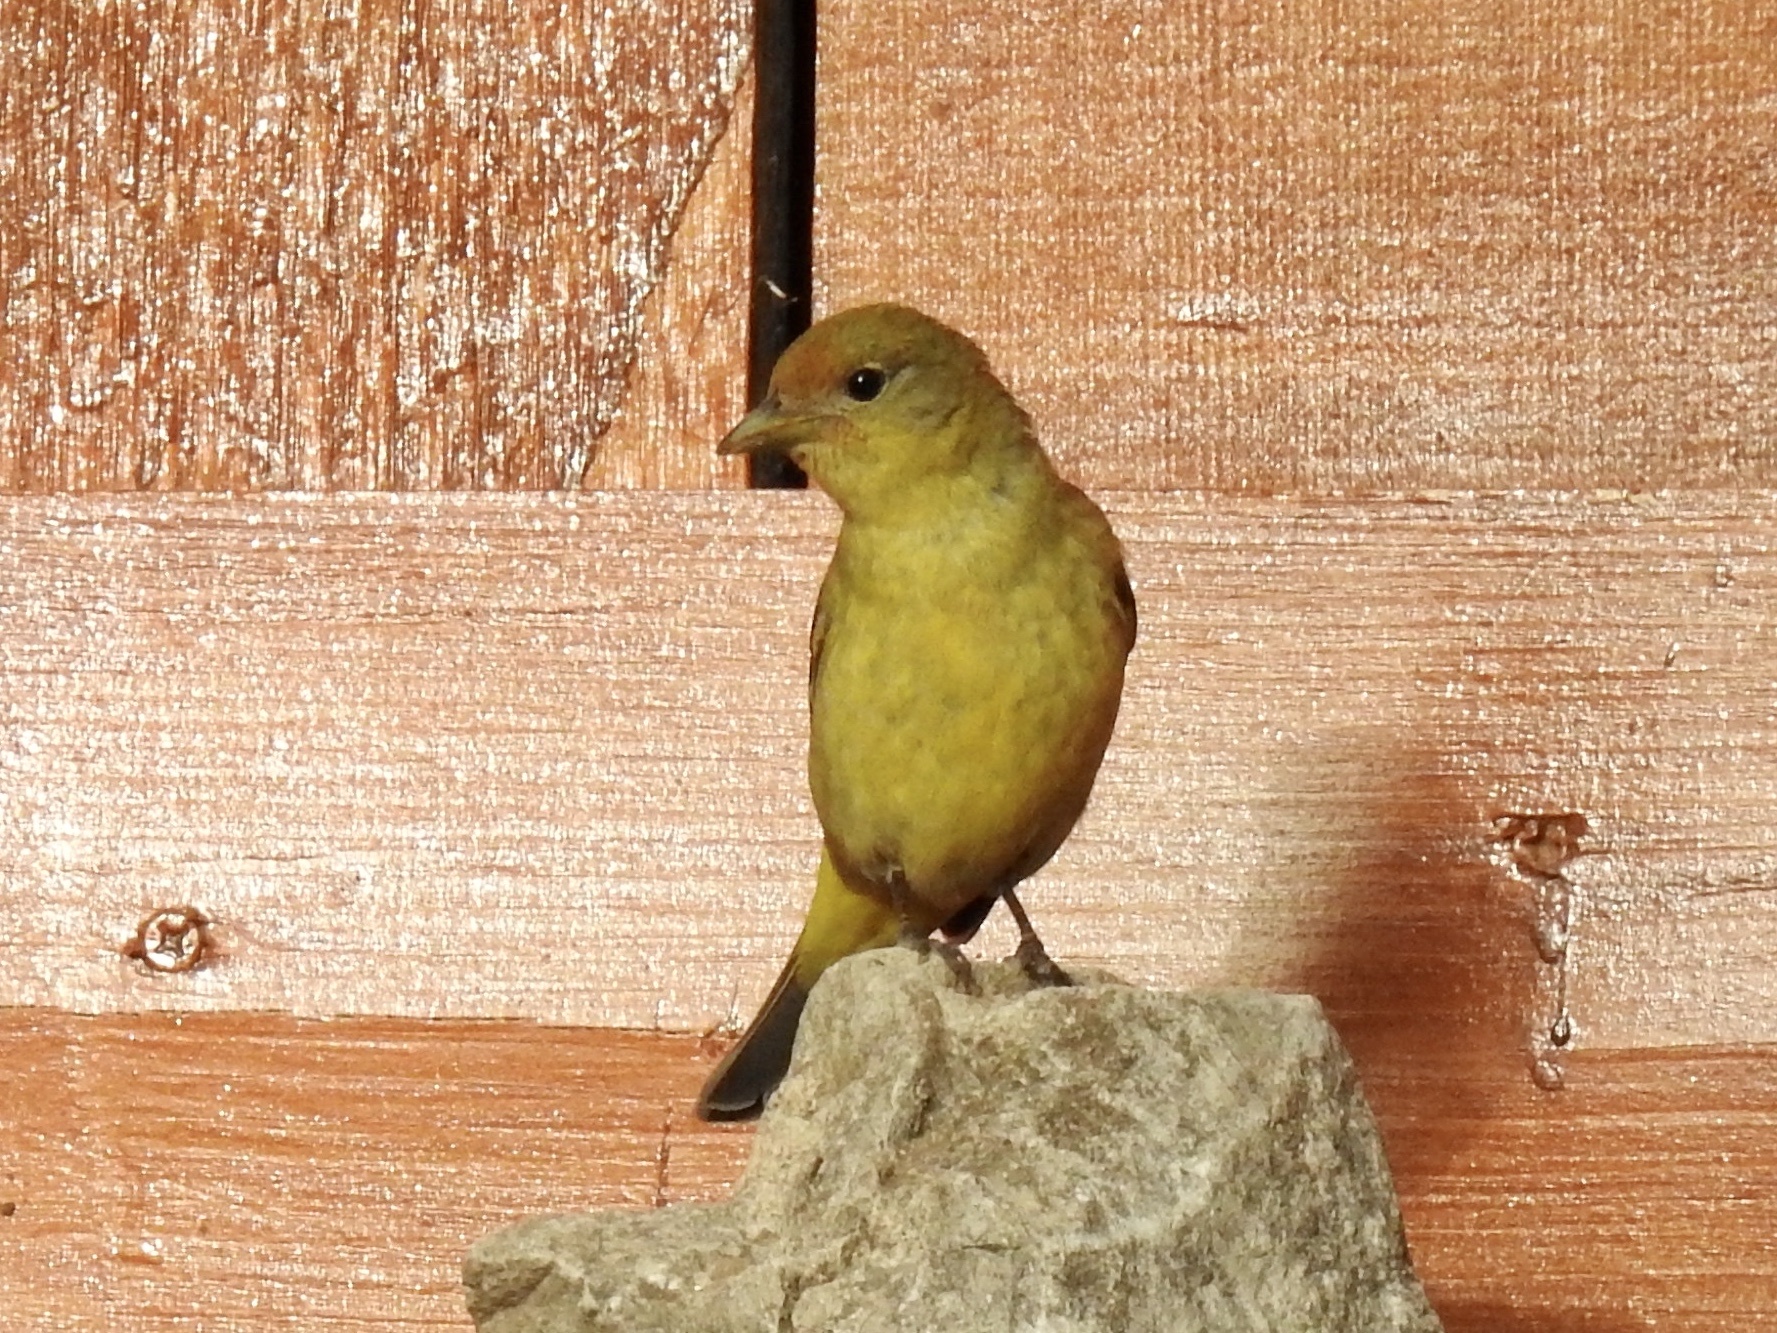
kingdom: Animalia
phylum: Chordata
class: Aves
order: Passeriformes
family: Cardinalidae
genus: Piranga
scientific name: Piranga ludoviciana
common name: Western tanager
